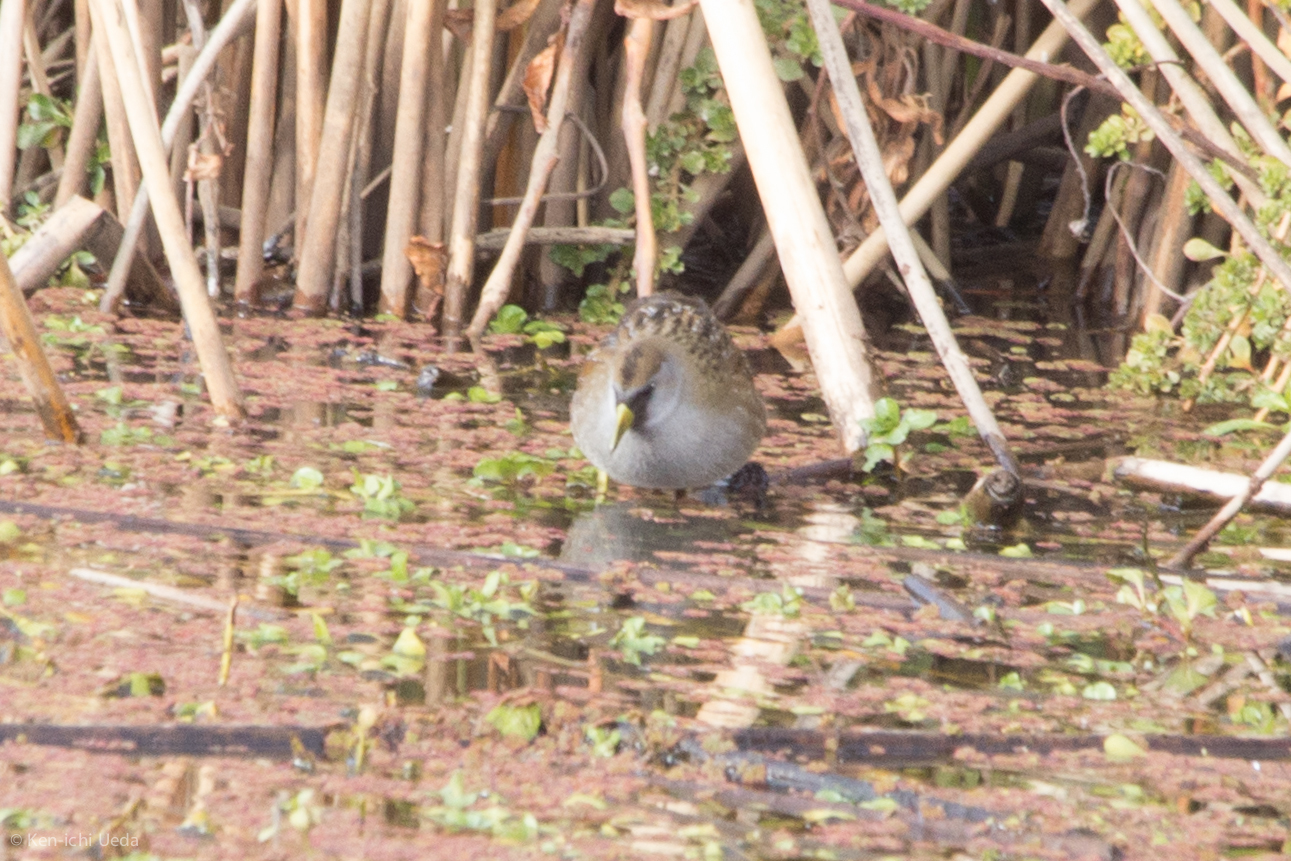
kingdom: Animalia
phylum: Chordata
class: Aves
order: Gruiformes
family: Rallidae
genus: Porzana
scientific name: Porzana carolina
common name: Sora
